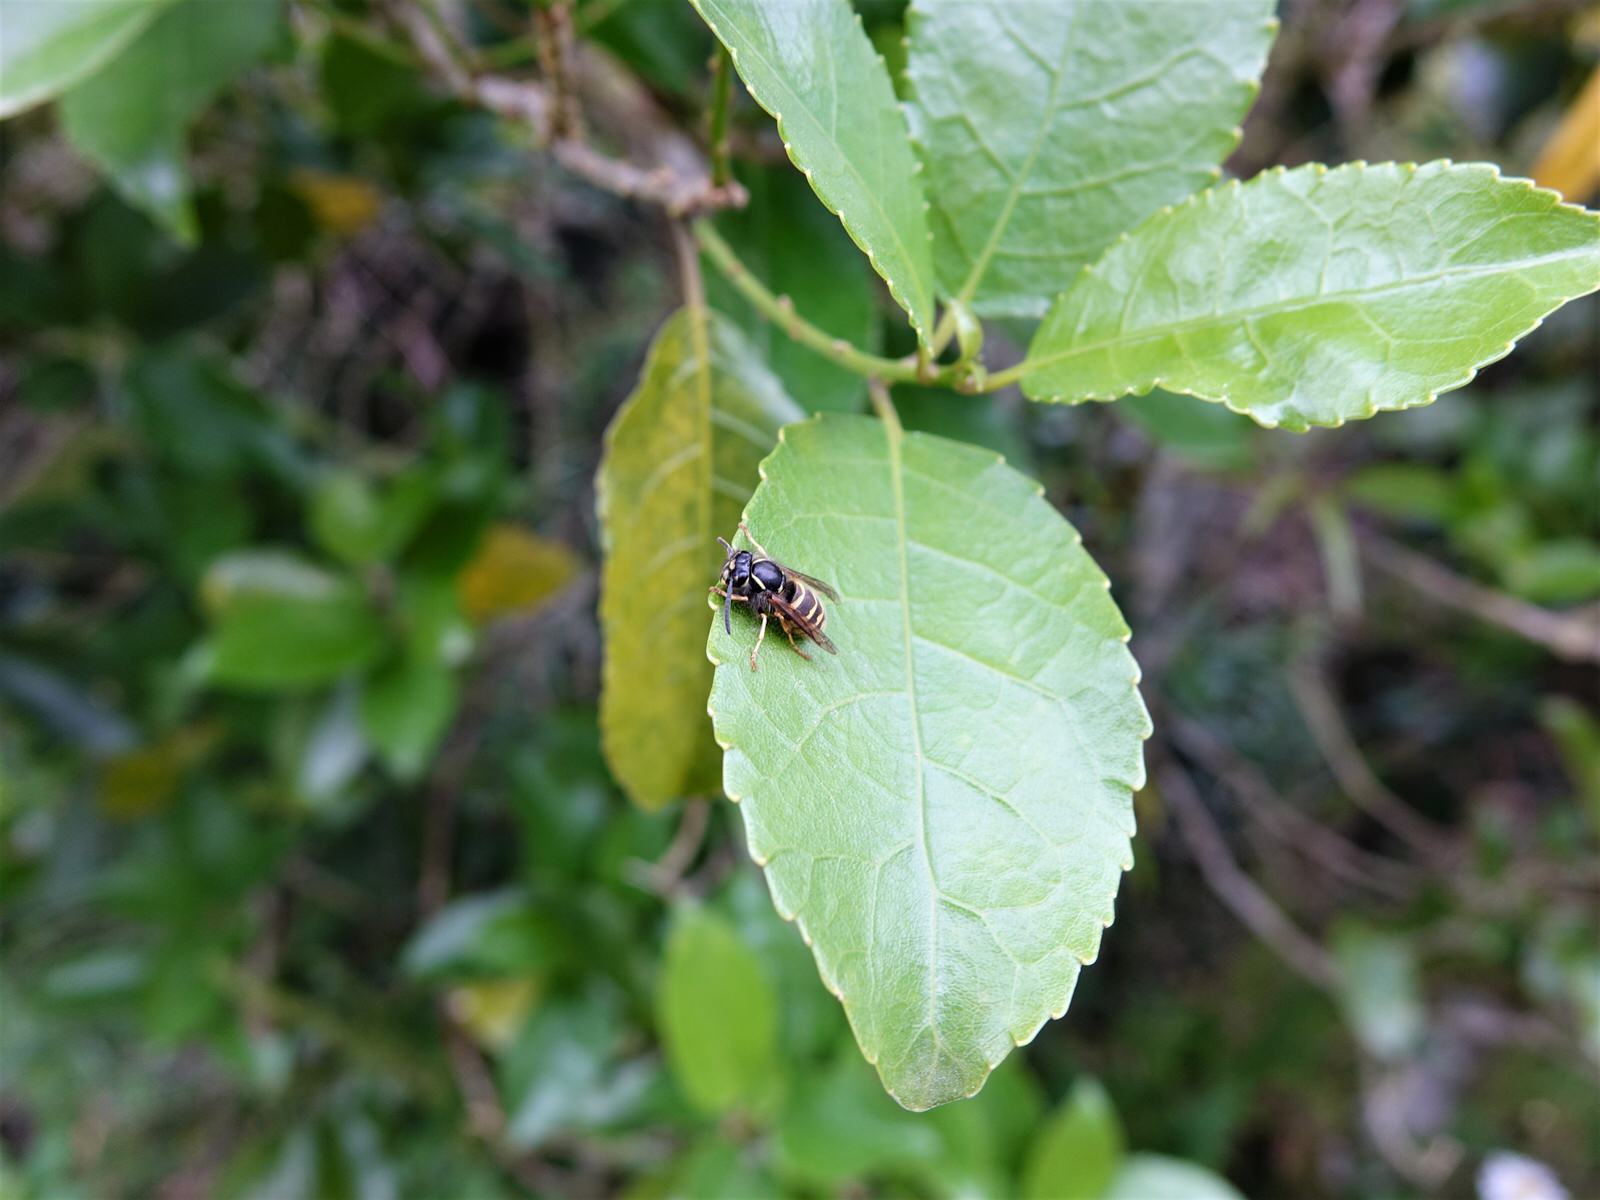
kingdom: Animalia
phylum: Arthropoda
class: Insecta
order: Hymenoptera
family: Vespidae
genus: Vespula
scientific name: Vespula vulgaris
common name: Common wasp
